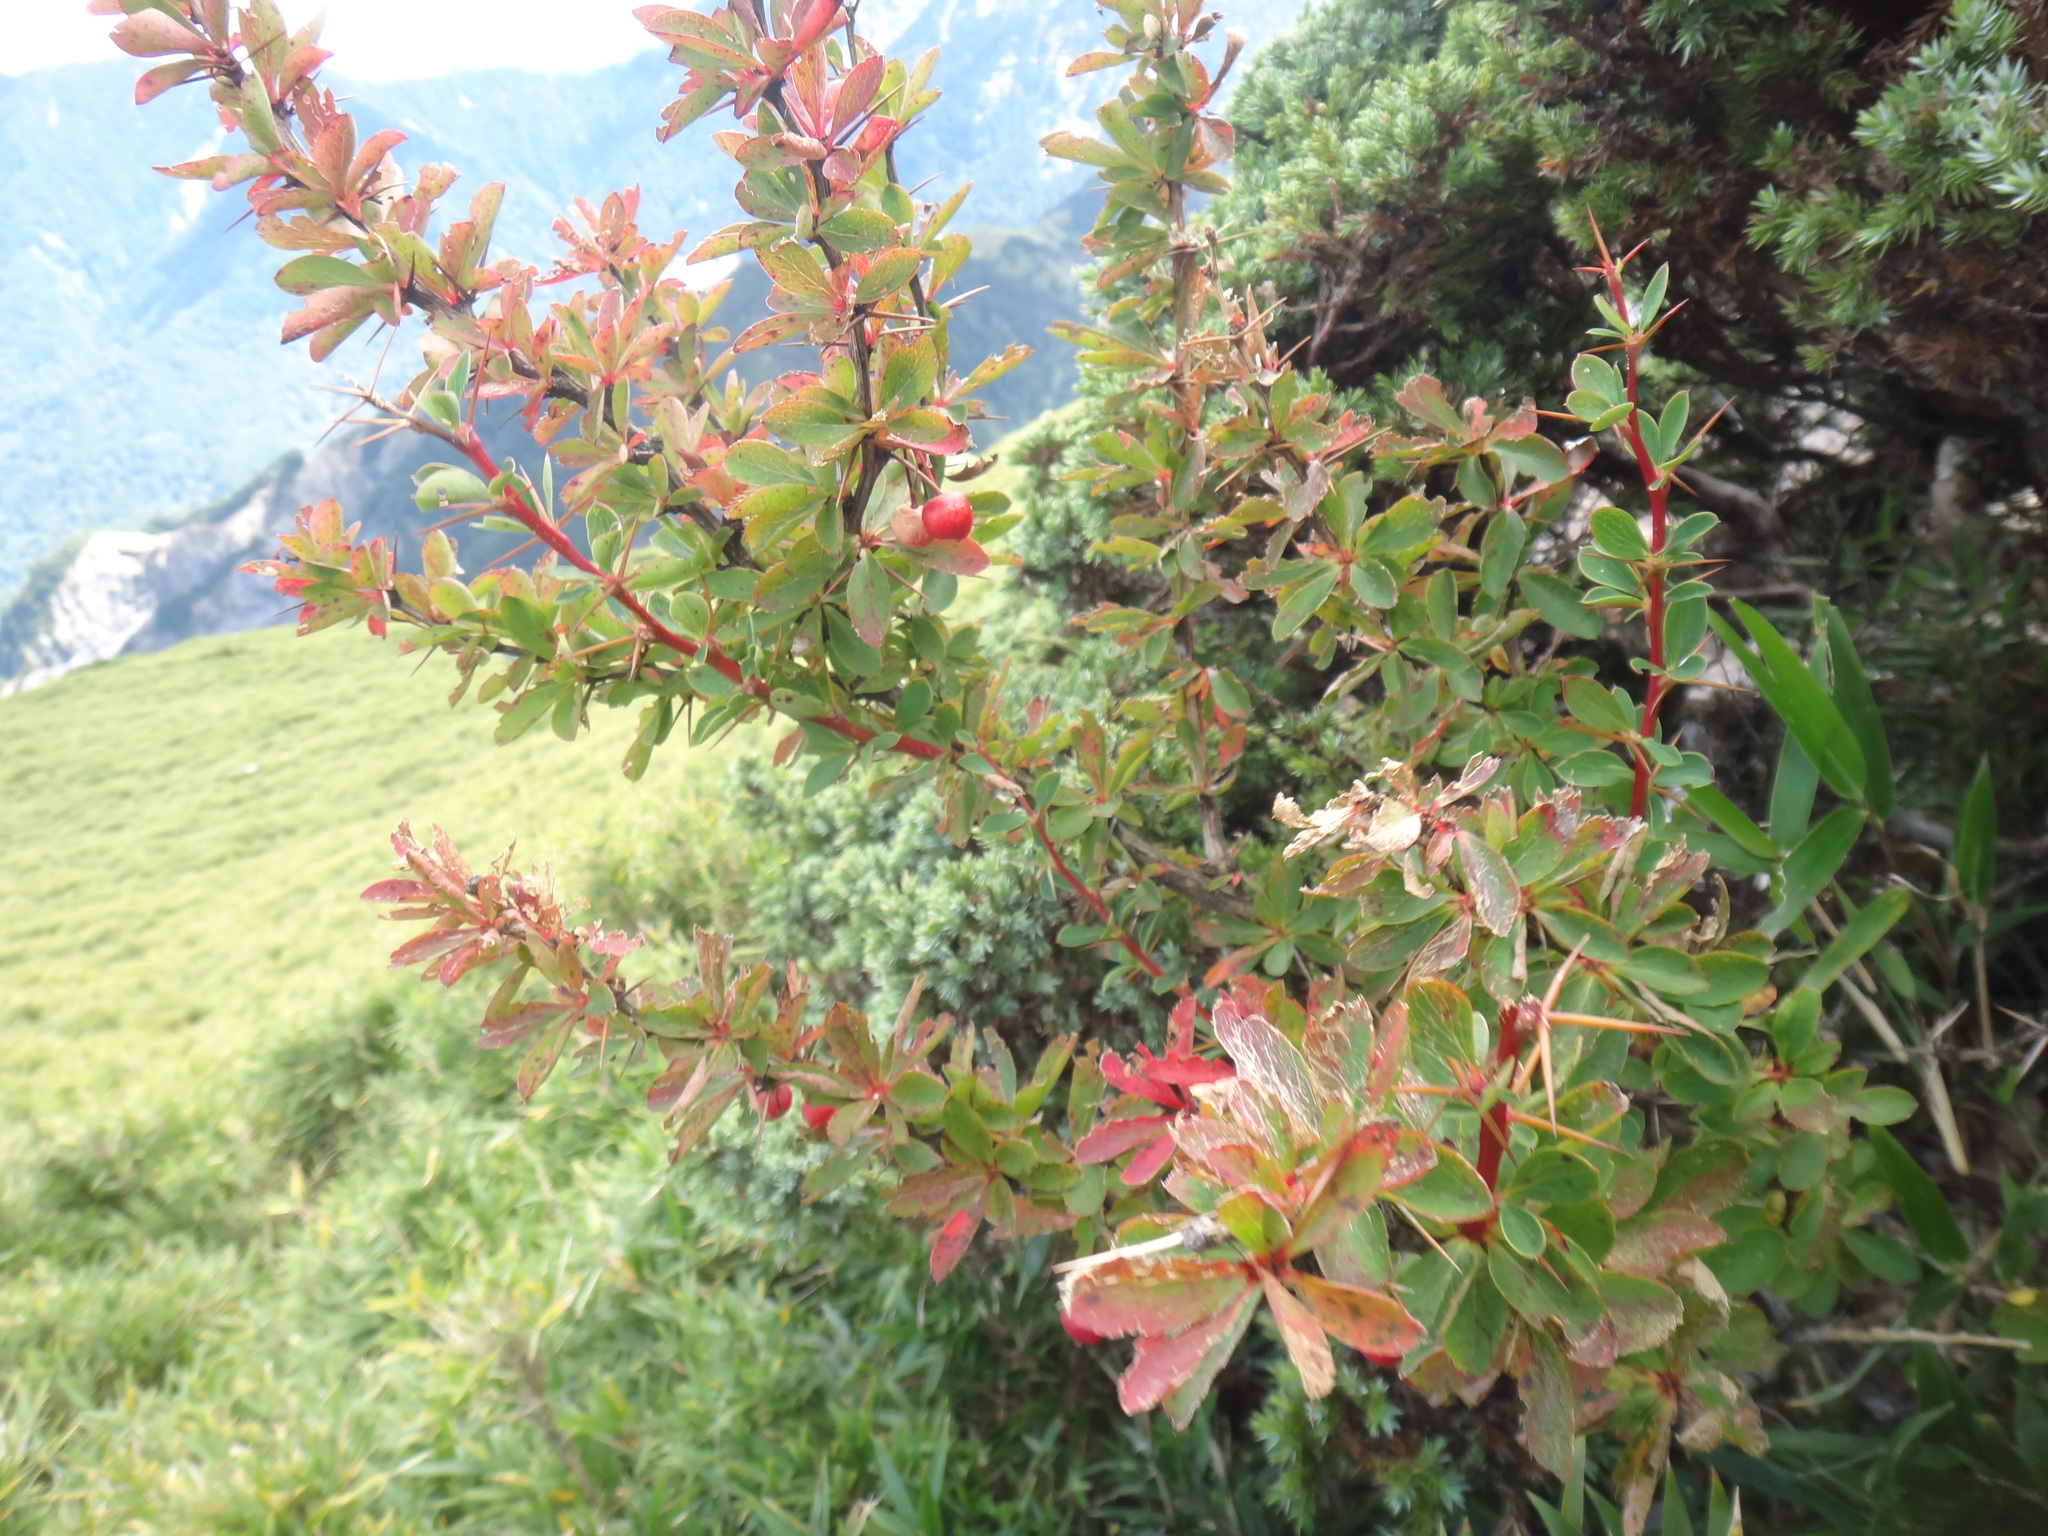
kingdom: Plantae
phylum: Tracheophyta
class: Magnoliopsida
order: Ranunculales
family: Berberidaceae
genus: Berberis
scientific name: Berberis morrisonensis
